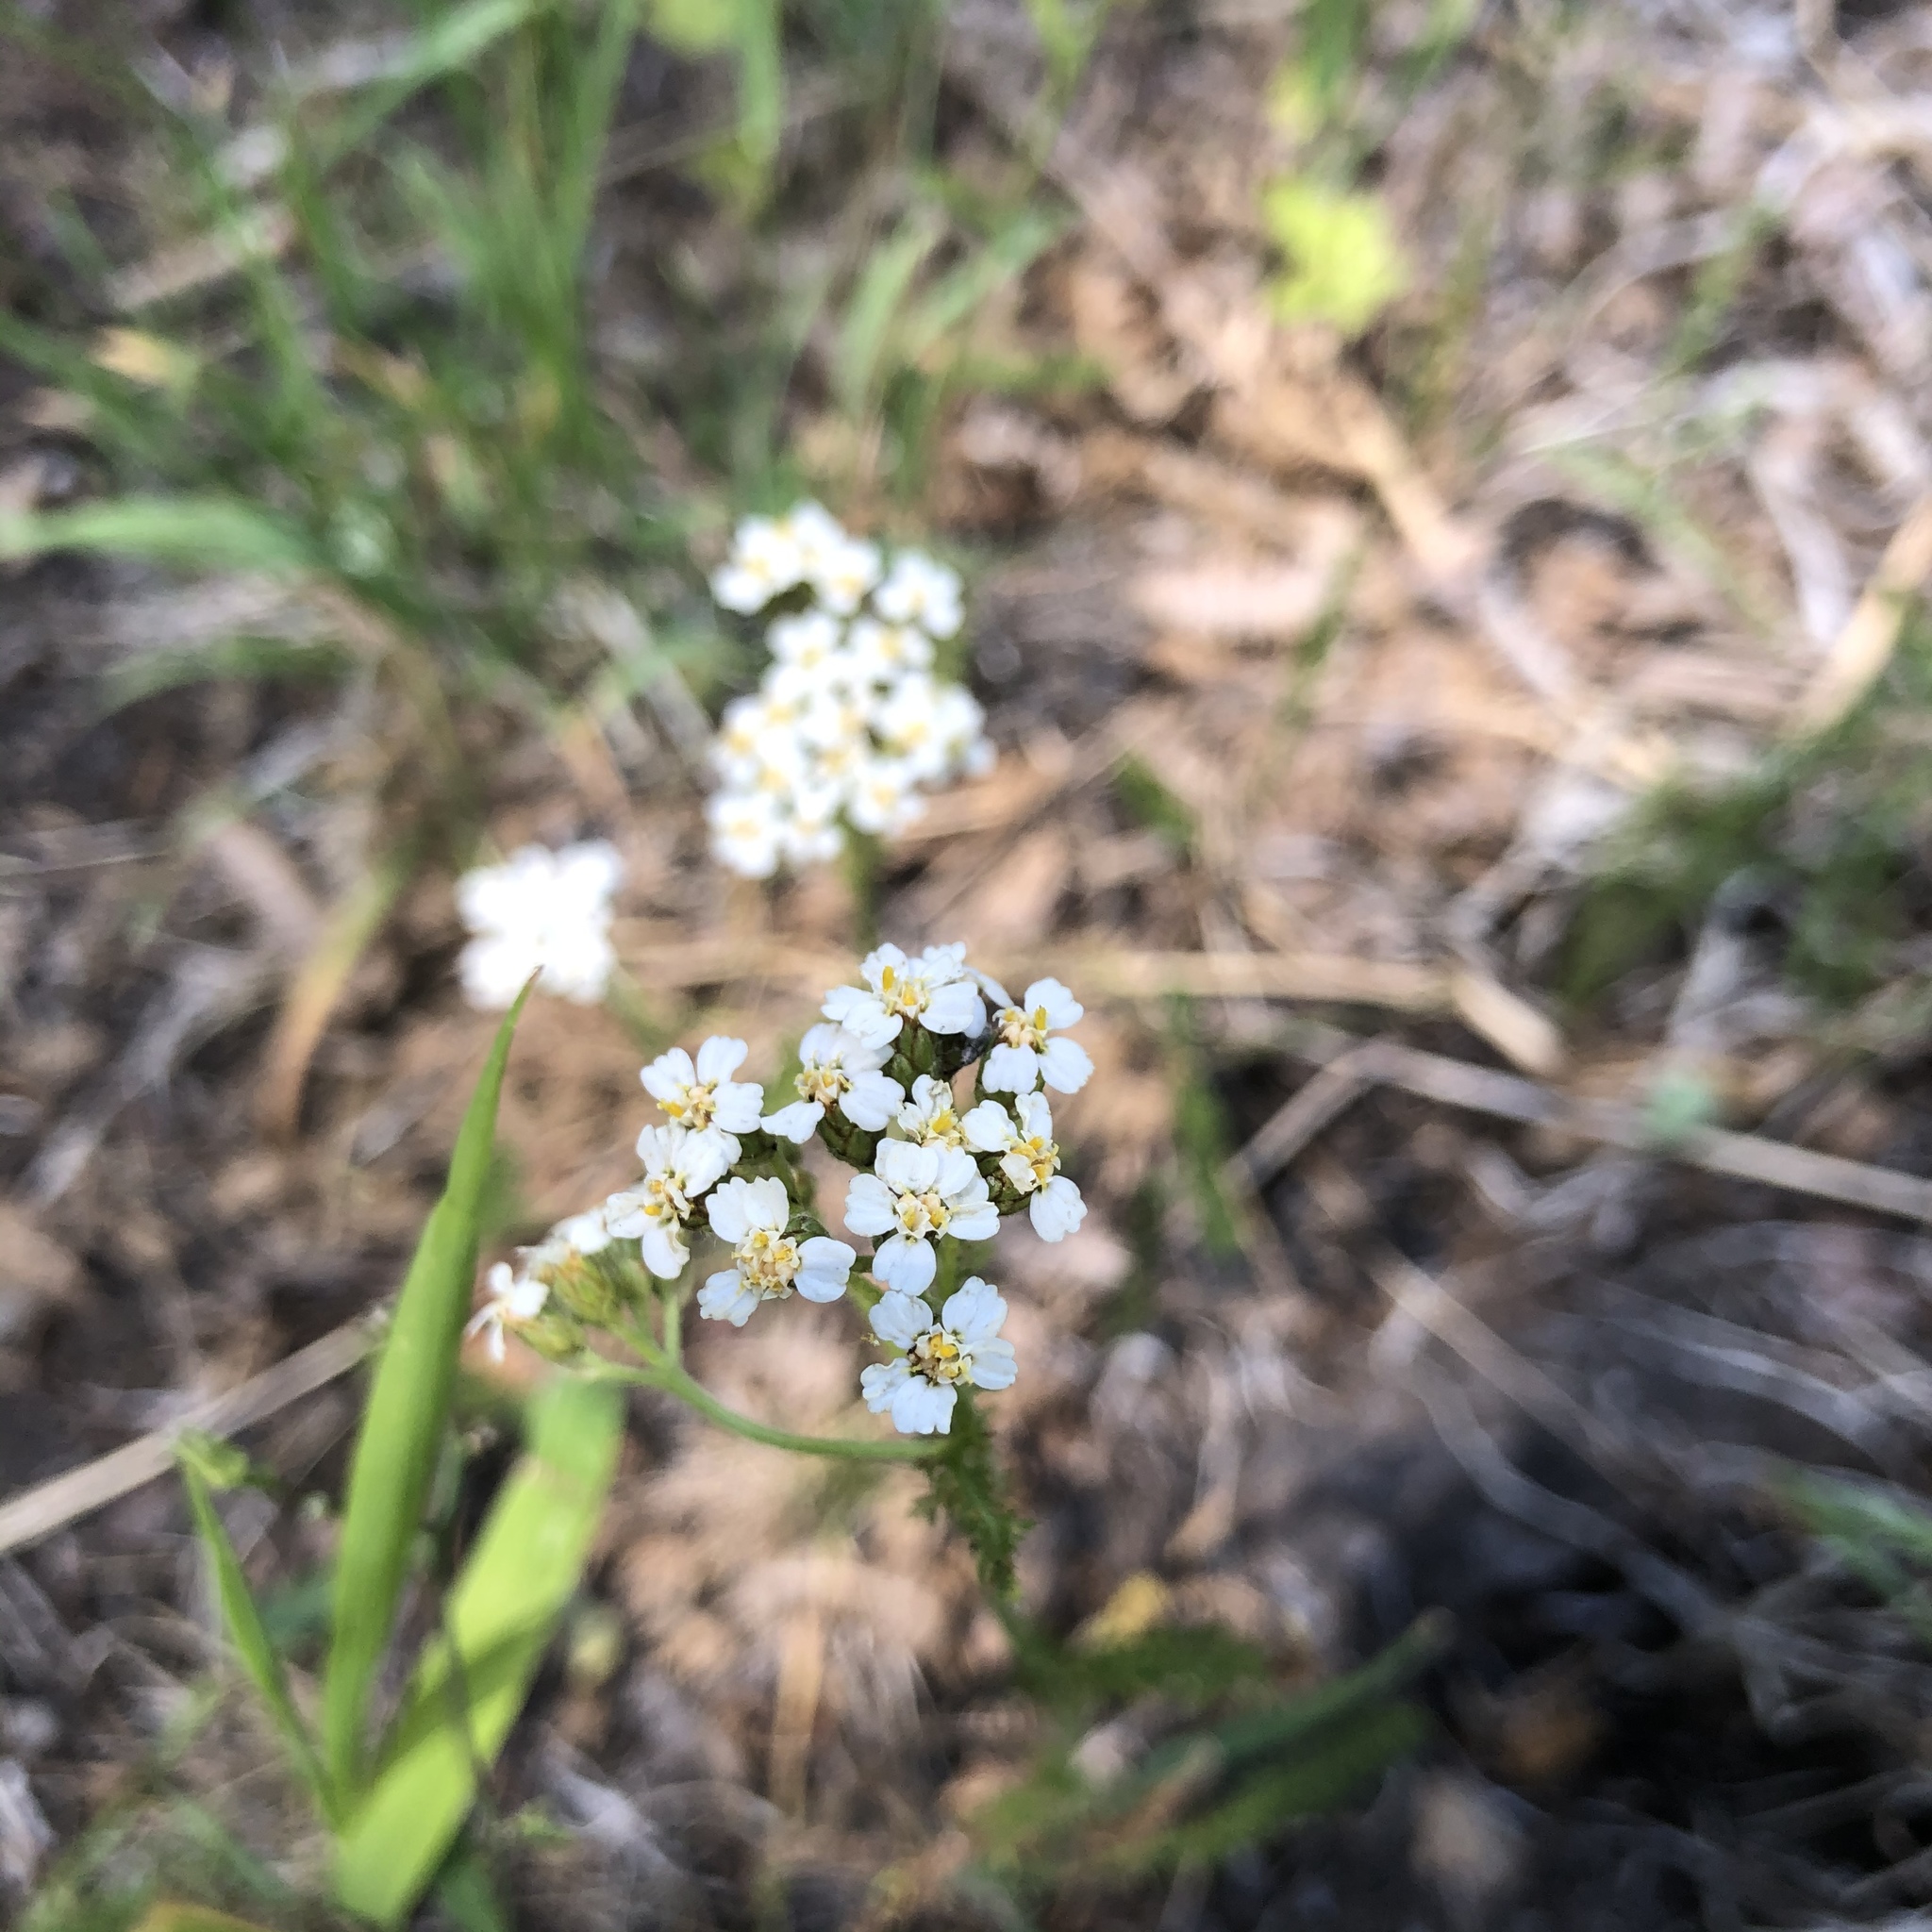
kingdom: Plantae
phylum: Tracheophyta
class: Magnoliopsida
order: Asterales
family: Asteraceae
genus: Achillea
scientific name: Achillea millefolium
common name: Yarrow
